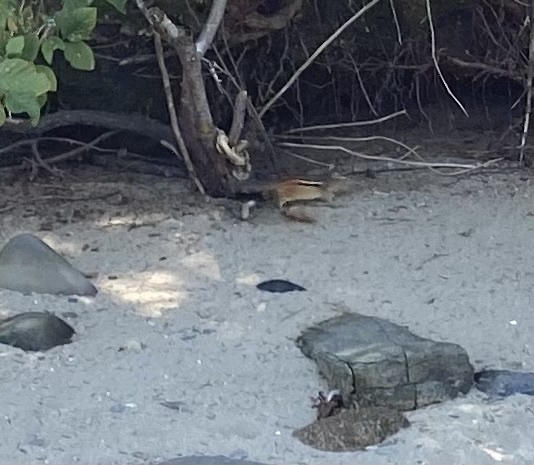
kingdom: Animalia
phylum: Chordata
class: Mammalia
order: Rodentia
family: Sciuridae
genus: Tamias
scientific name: Tamias striatus
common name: Eastern chipmunk
